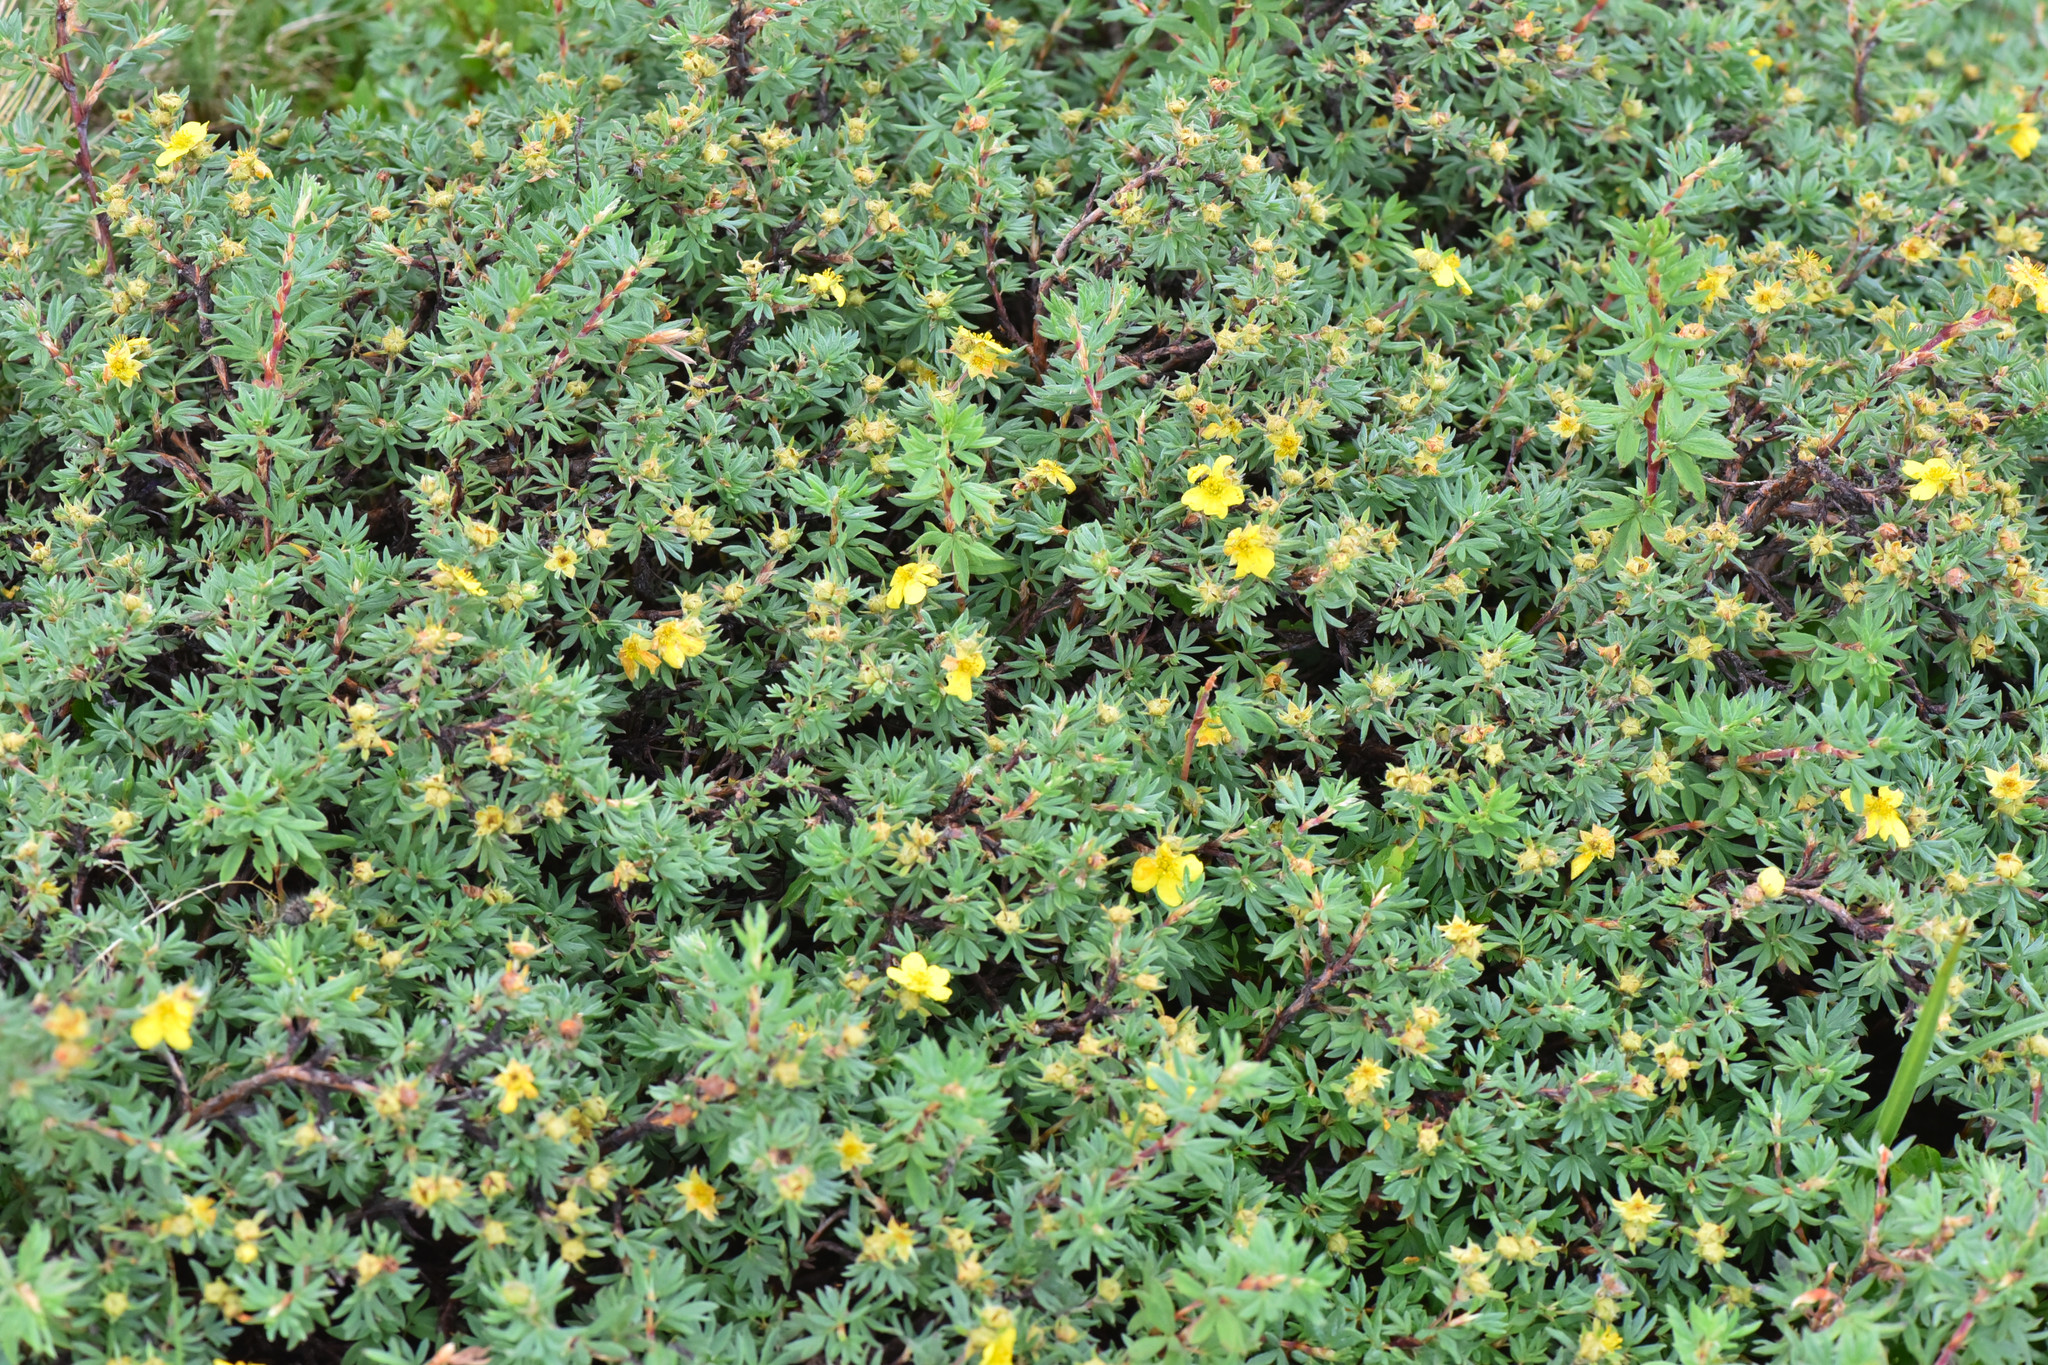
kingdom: Plantae
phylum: Tracheophyta
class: Magnoliopsida
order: Rosales
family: Rosaceae
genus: Dasiphora
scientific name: Dasiphora fruticosa
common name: Shrubby cinquefoil
